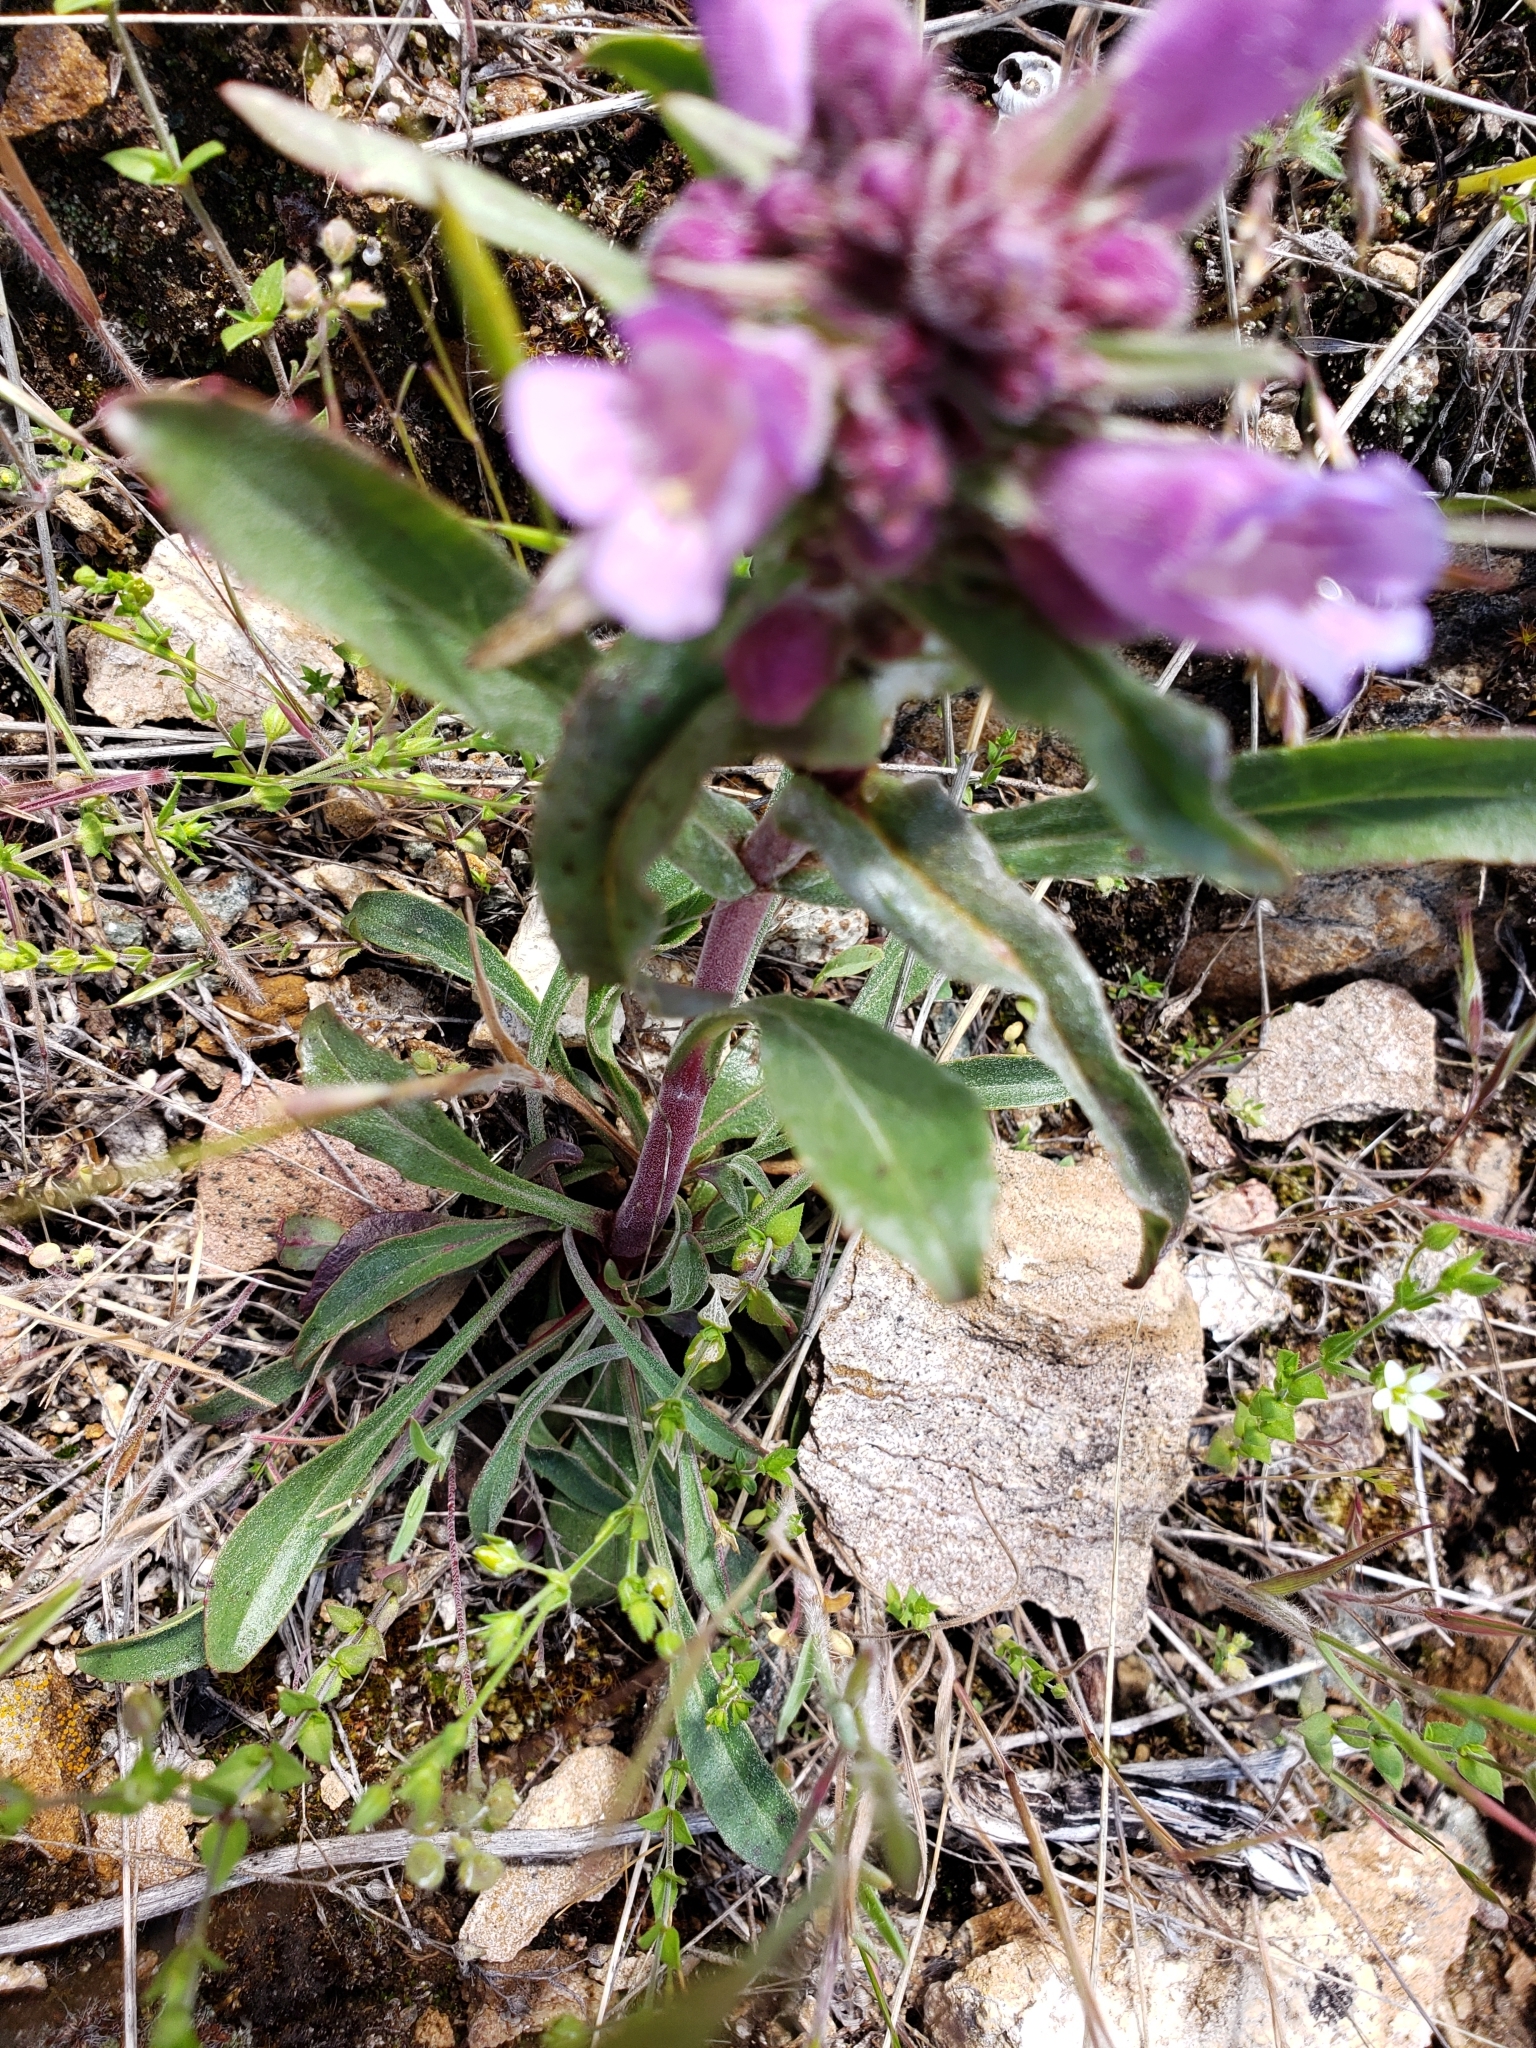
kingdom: Plantae
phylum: Tracheophyta
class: Magnoliopsida
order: Lamiales
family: Plantaginaceae
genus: Penstemon
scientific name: Penstemon eriantherus
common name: Crested beardtongue
